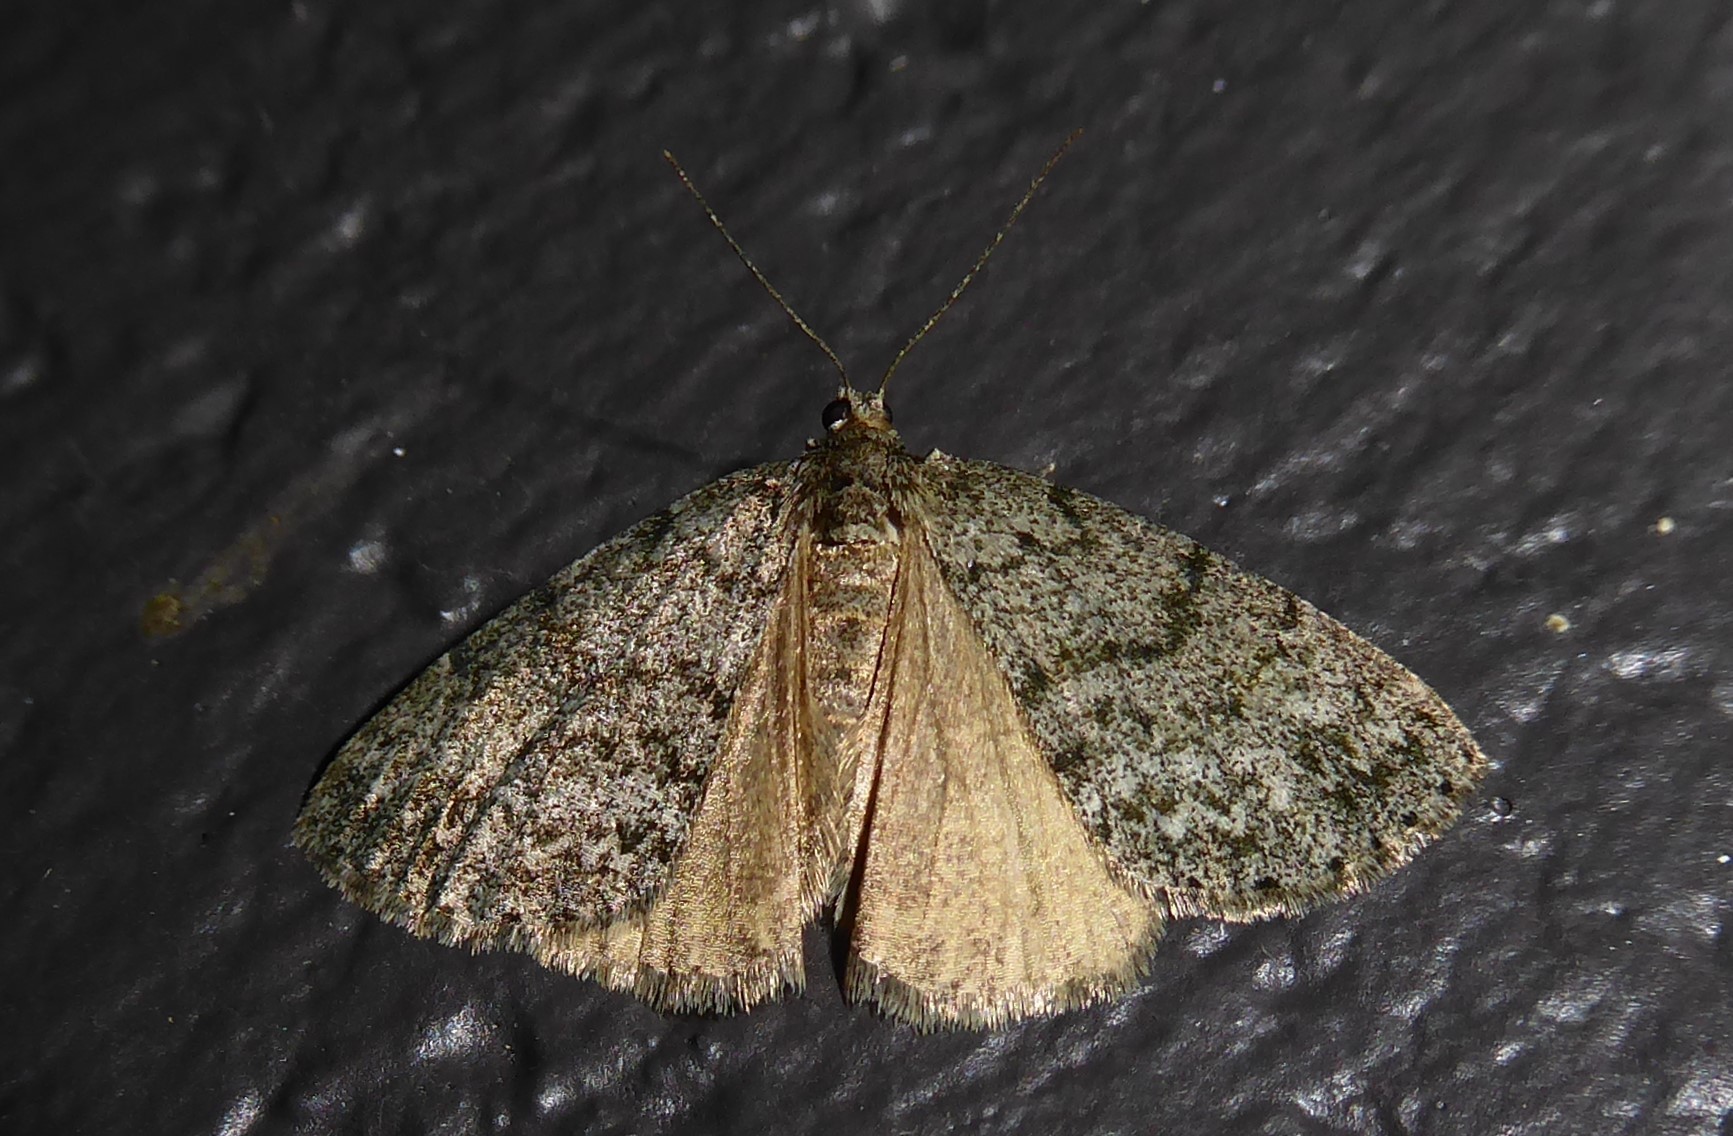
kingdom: Animalia
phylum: Arthropoda
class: Insecta
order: Lepidoptera
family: Geometridae
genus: Pseudocoremia
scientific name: Pseudocoremia indistincta
